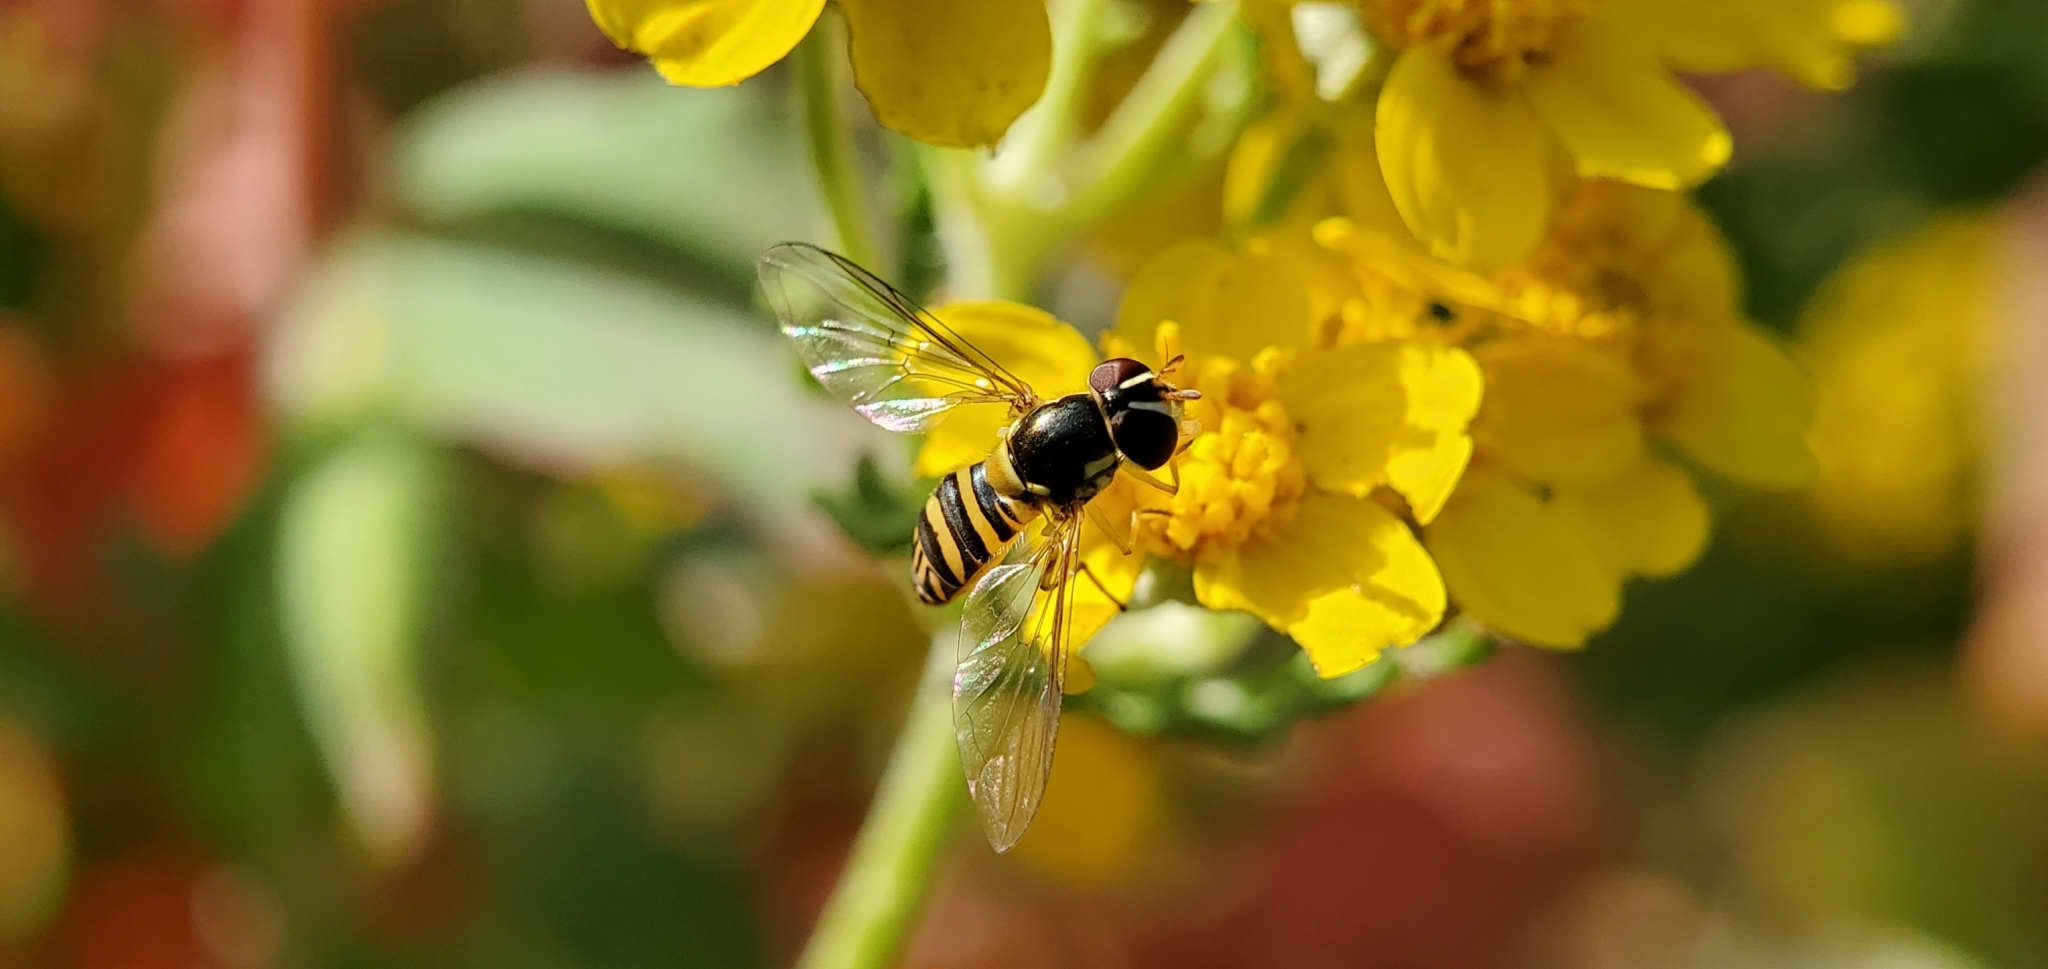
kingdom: Animalia
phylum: Arthropoda
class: Insecta
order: Diptera
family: Syrphidae
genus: Allograpta
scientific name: Allograpta obliqua
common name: Common oblique syrphid
